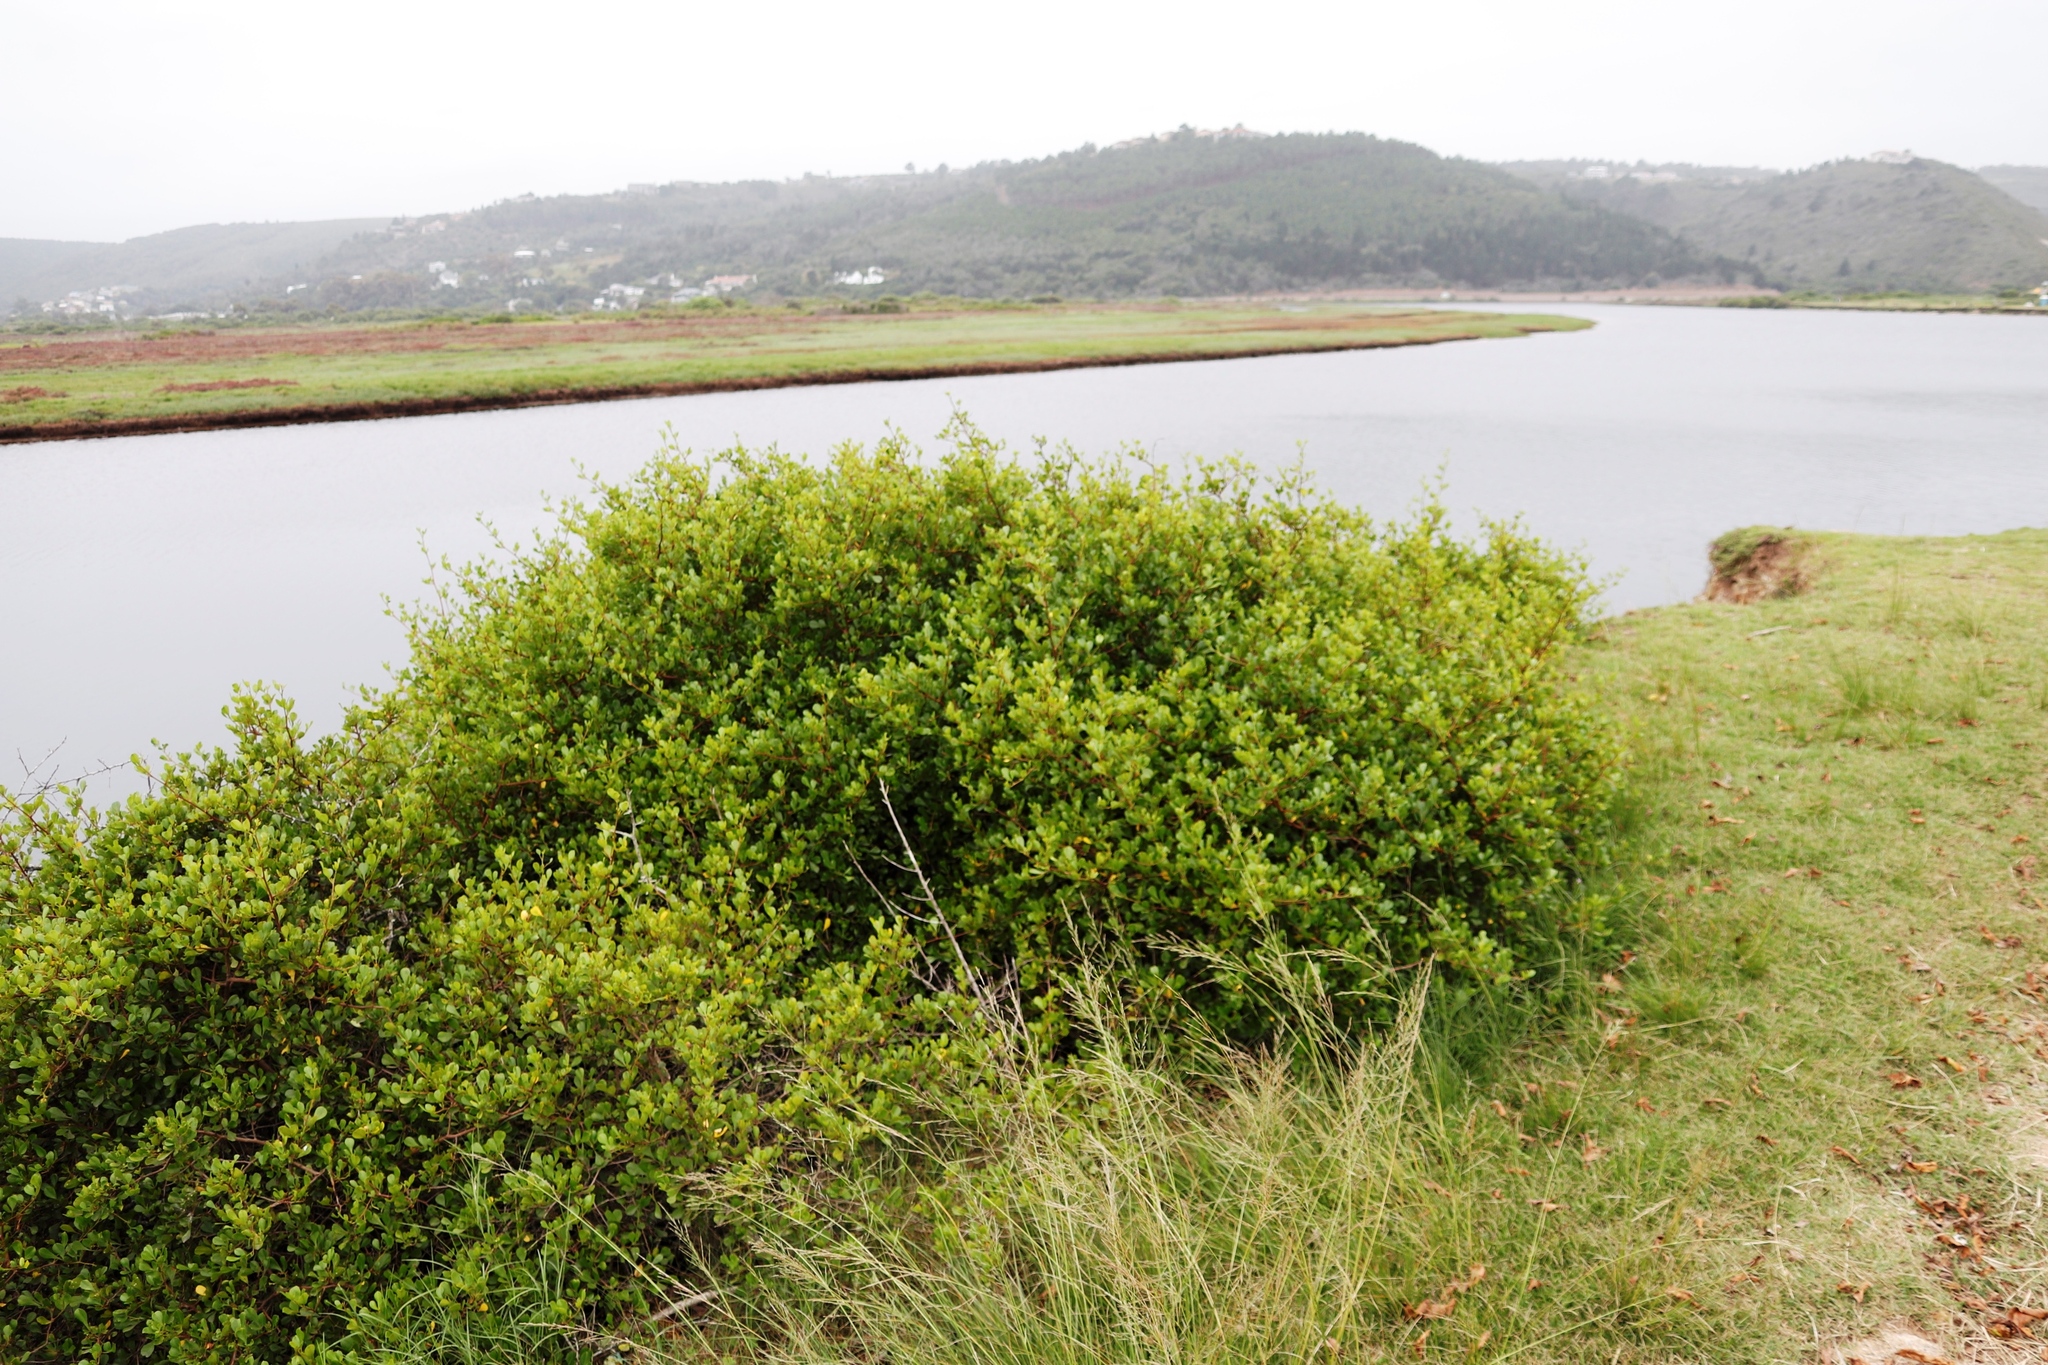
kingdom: Plantae
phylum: Tracheophyta
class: Magnoliopsida
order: Sapindales
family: Anacardiaceae
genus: Searsia
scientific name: Searsia glauca
